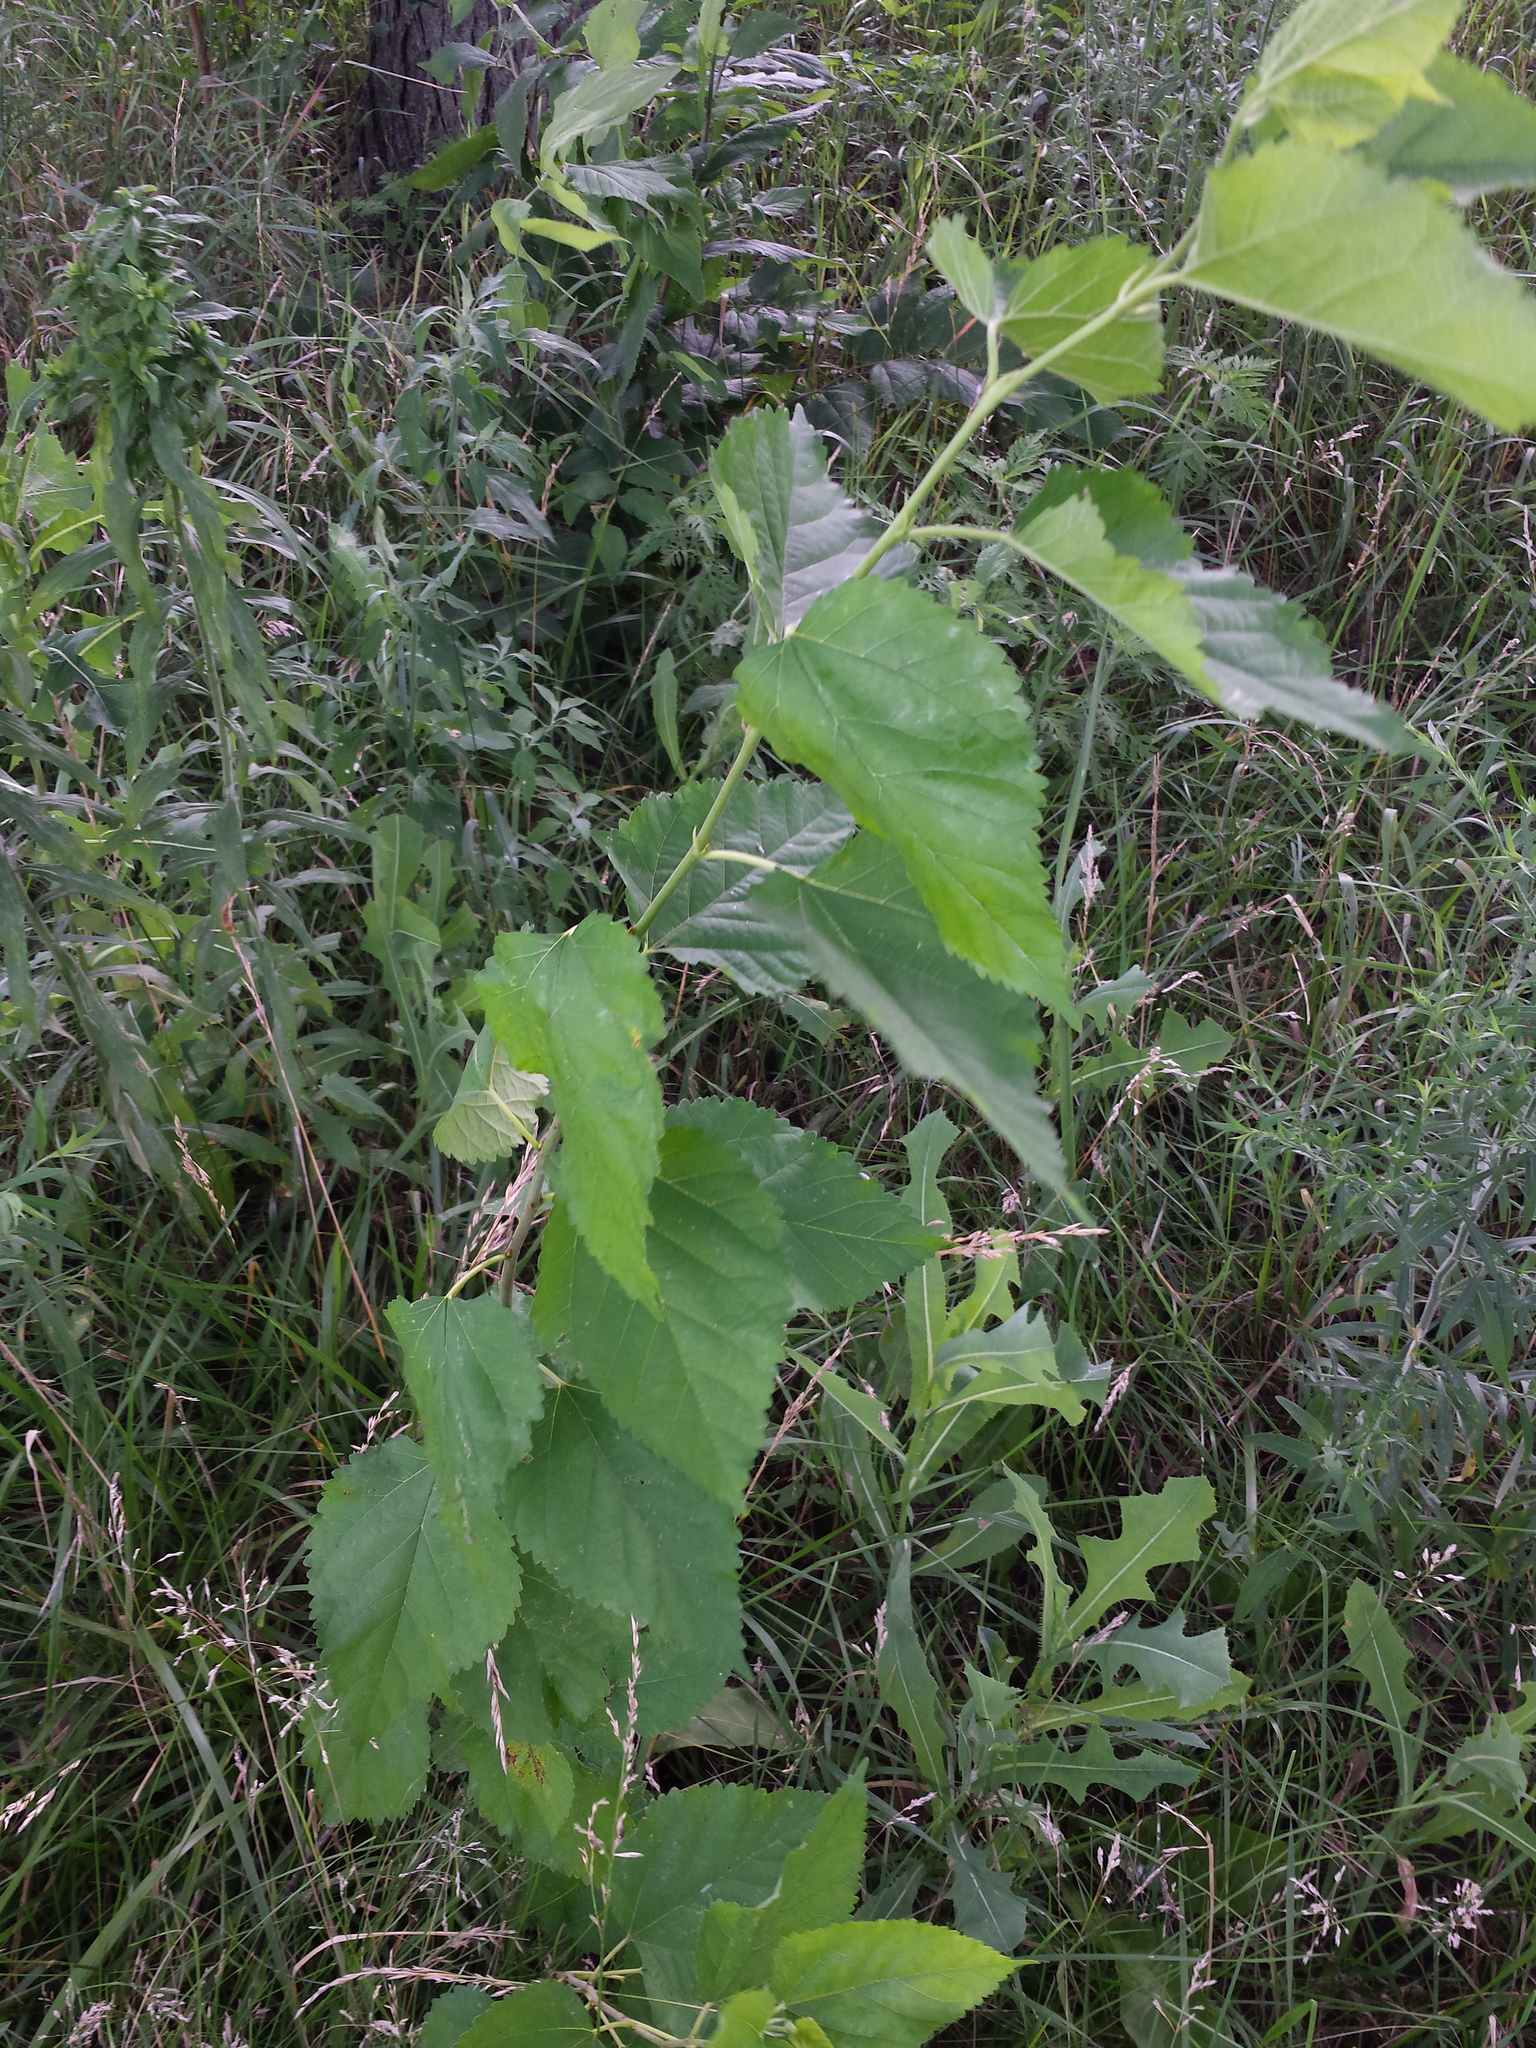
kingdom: Plantae
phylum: Tracheophyta
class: Magnoliopsida
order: Rosales
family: Moraceae
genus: Morus
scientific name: Morus alba
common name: White mulberry
